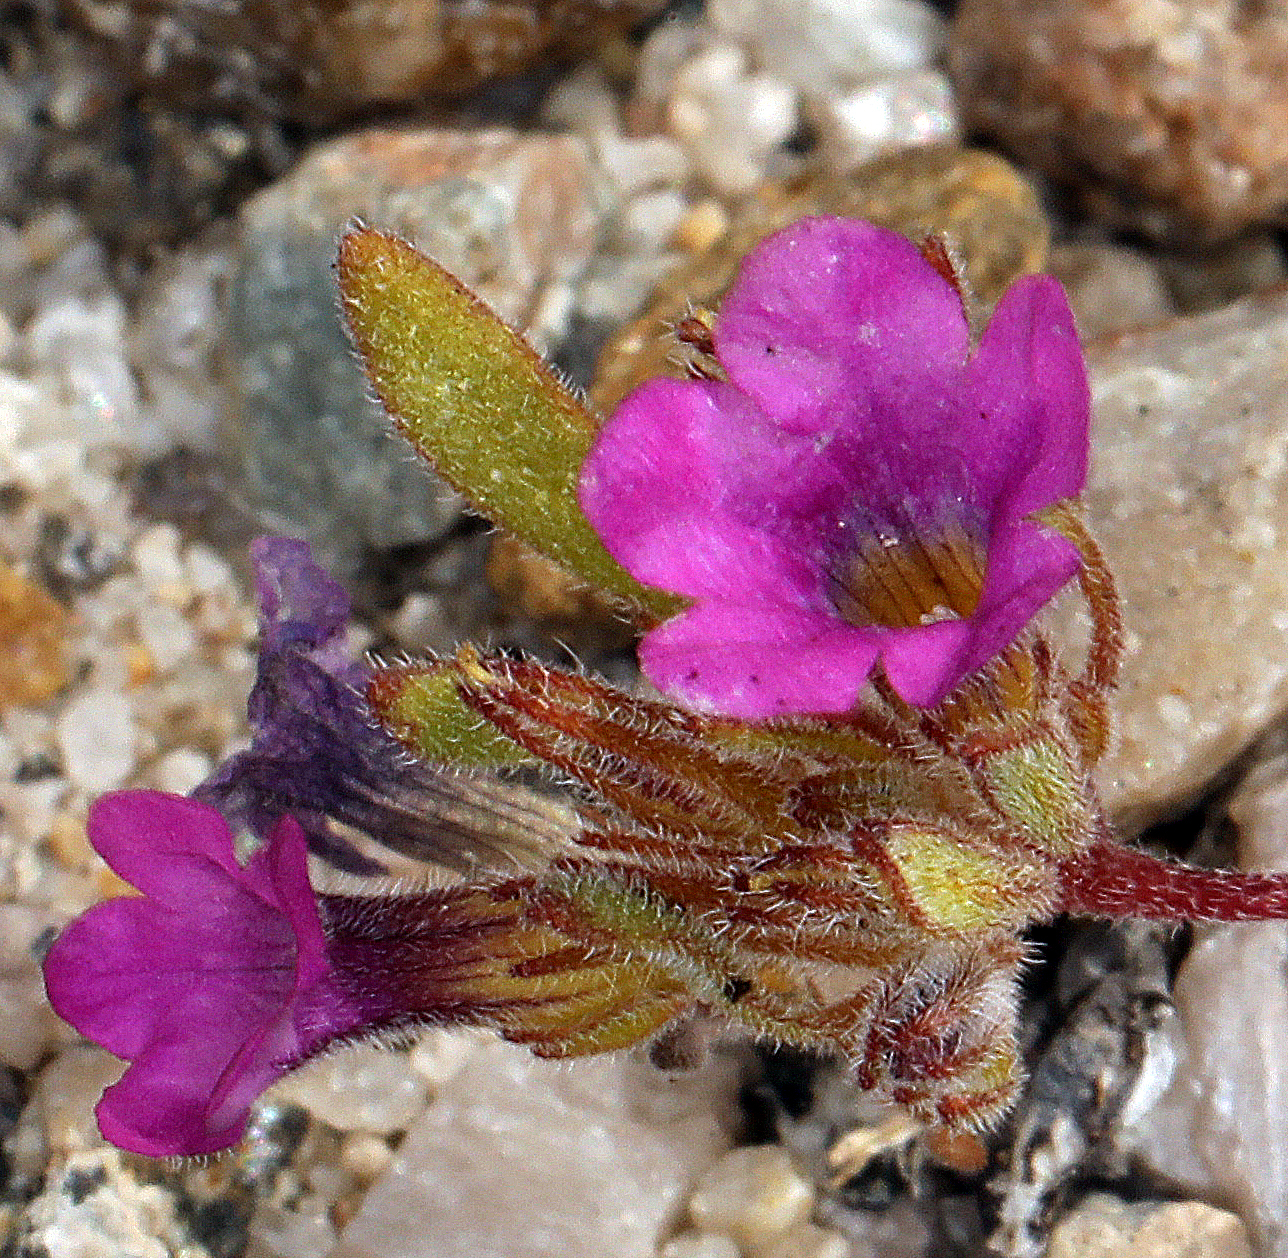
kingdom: Plantae
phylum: Tracheophyta
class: Magnoliopsida
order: Boraginales
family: Namaceae
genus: Nama
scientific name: Nama demissa
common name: Leafy nama
